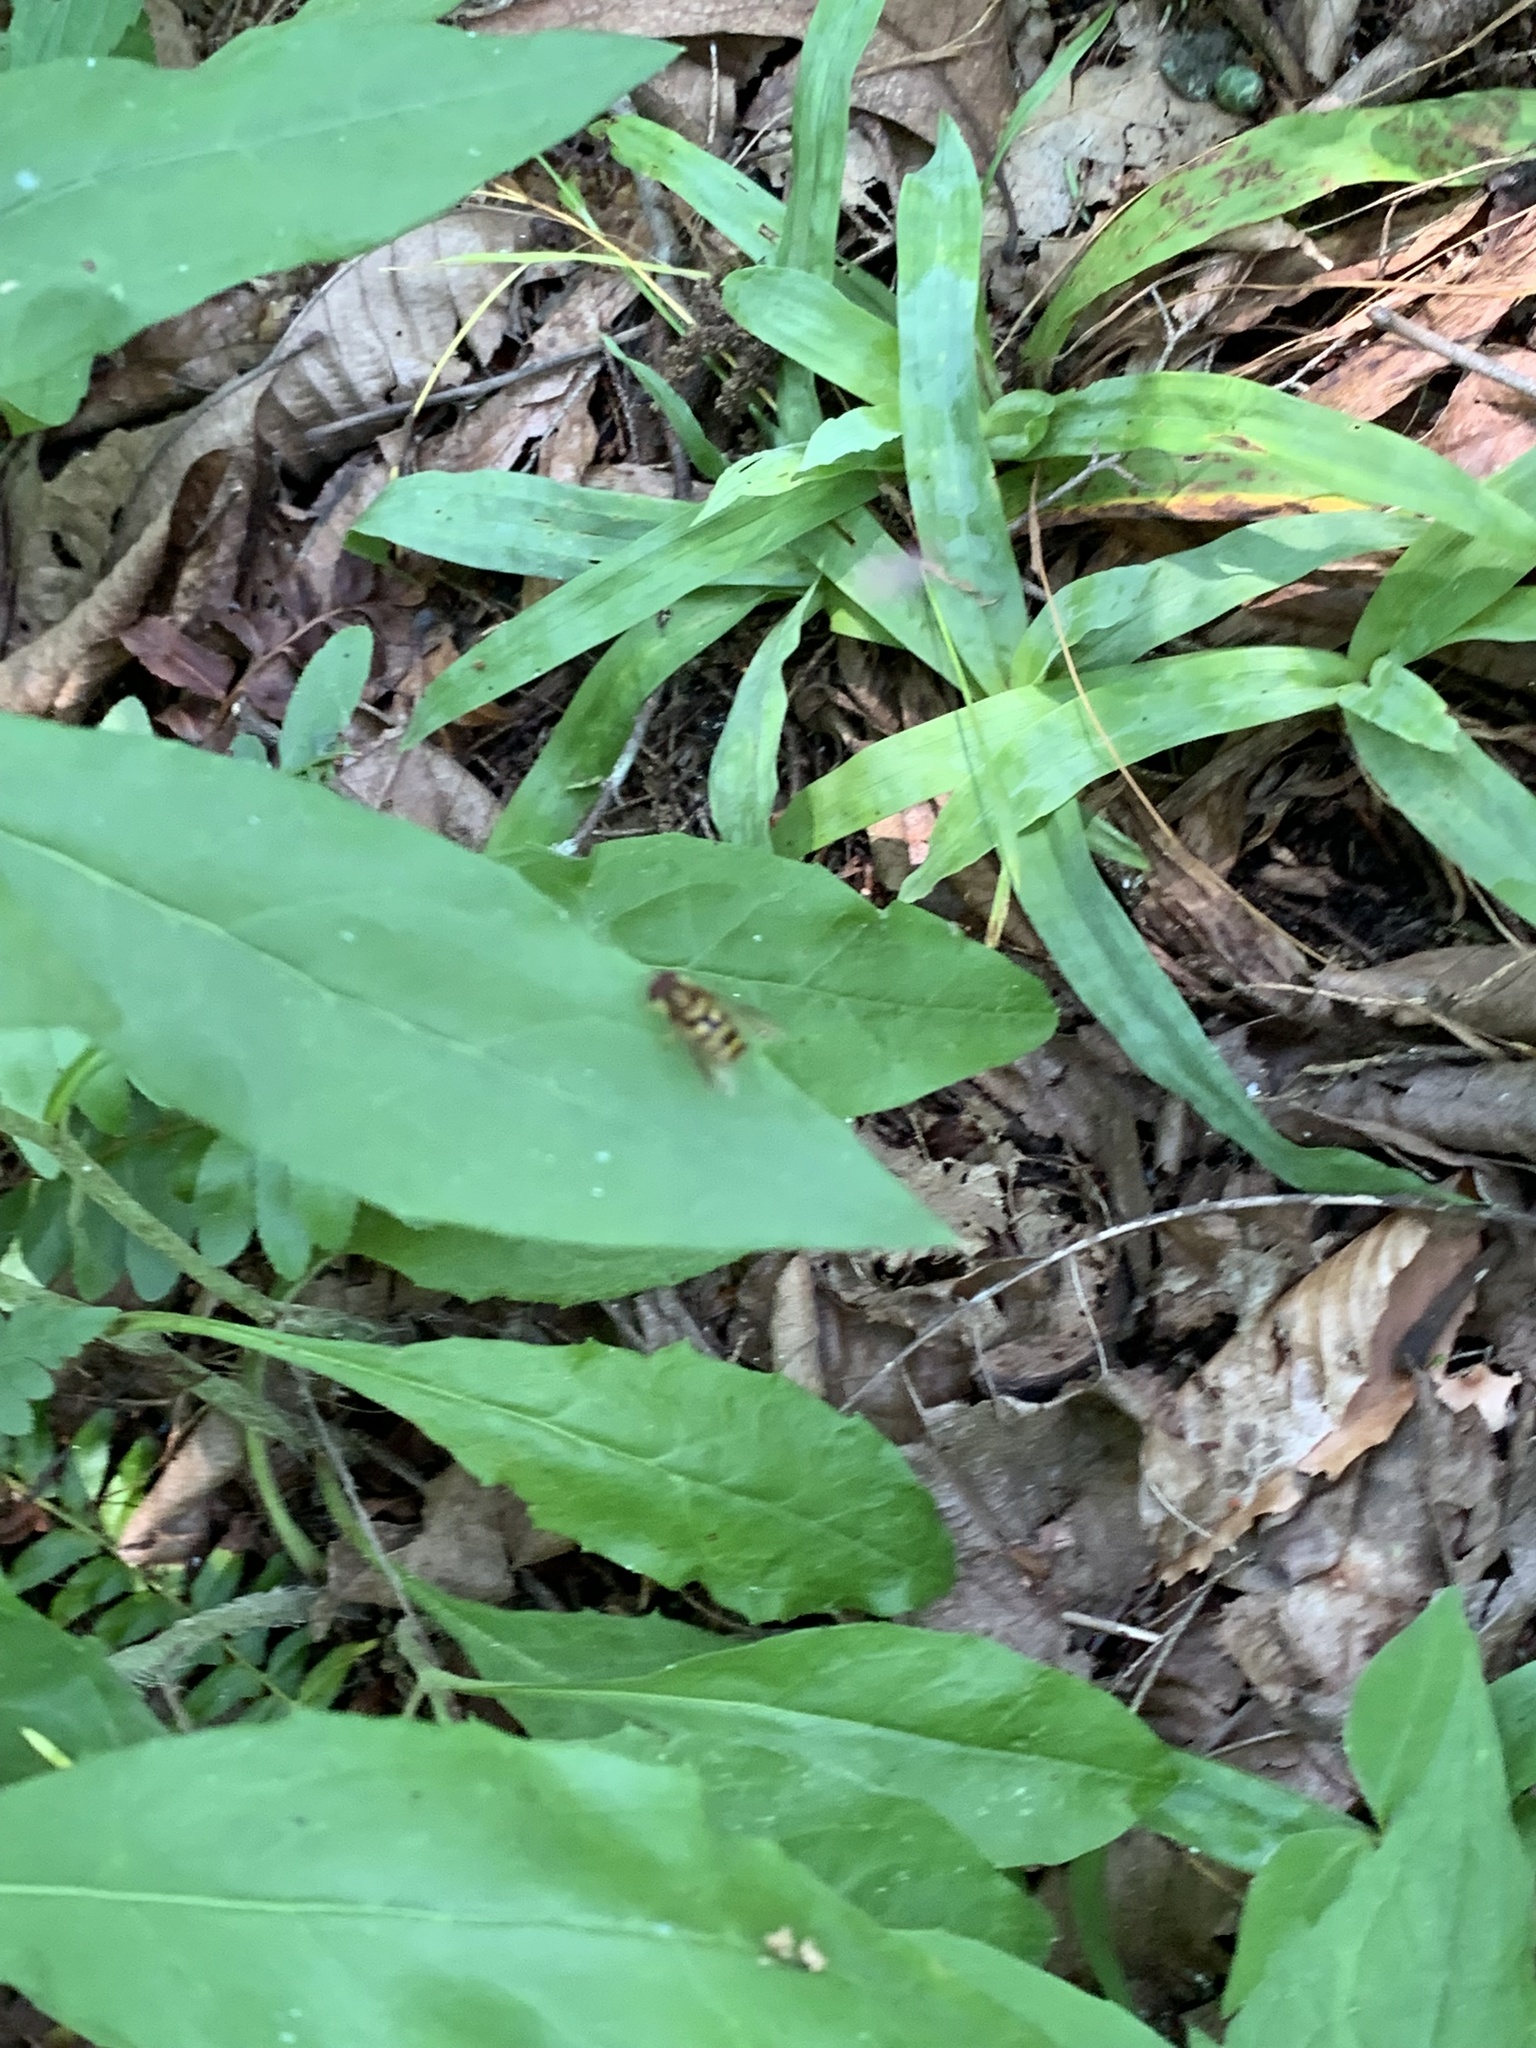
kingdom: Animalia
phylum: Arthropoda
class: Insecta
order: Diptera
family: Syrphidae
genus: Syrphus
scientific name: Syrphus
